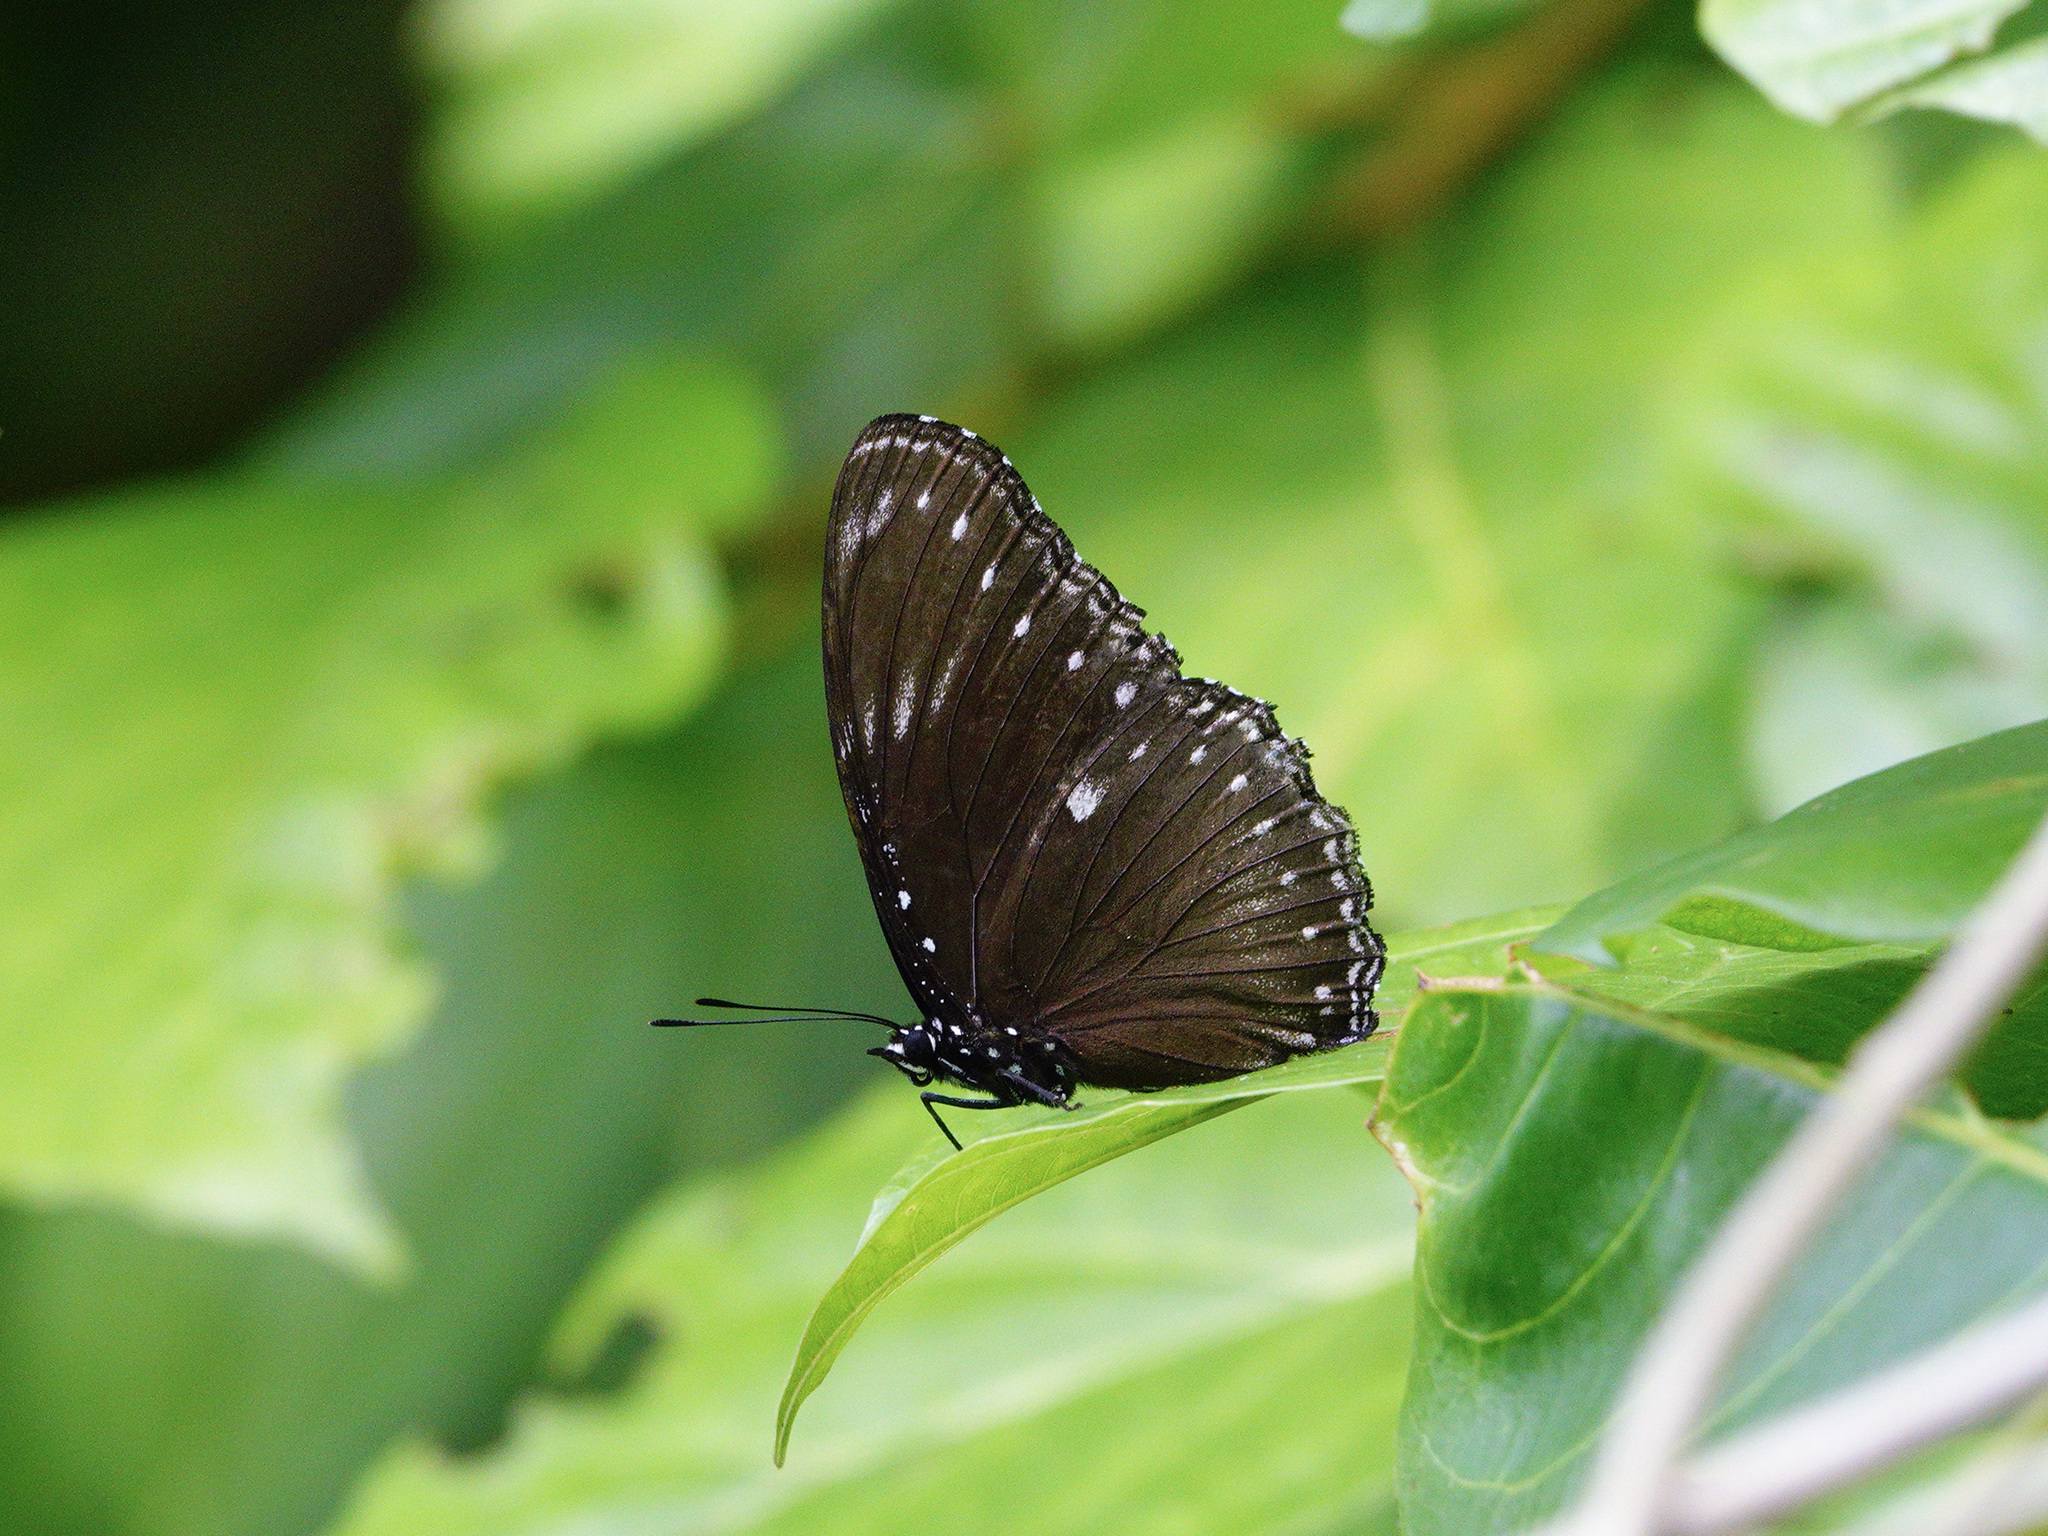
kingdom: Animalia
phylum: Arthropoda
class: Insecta
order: Lepidoptera
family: Nymphalidae
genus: Hypolimnas
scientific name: Hypolimnas anomala
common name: Malayan eggfly
